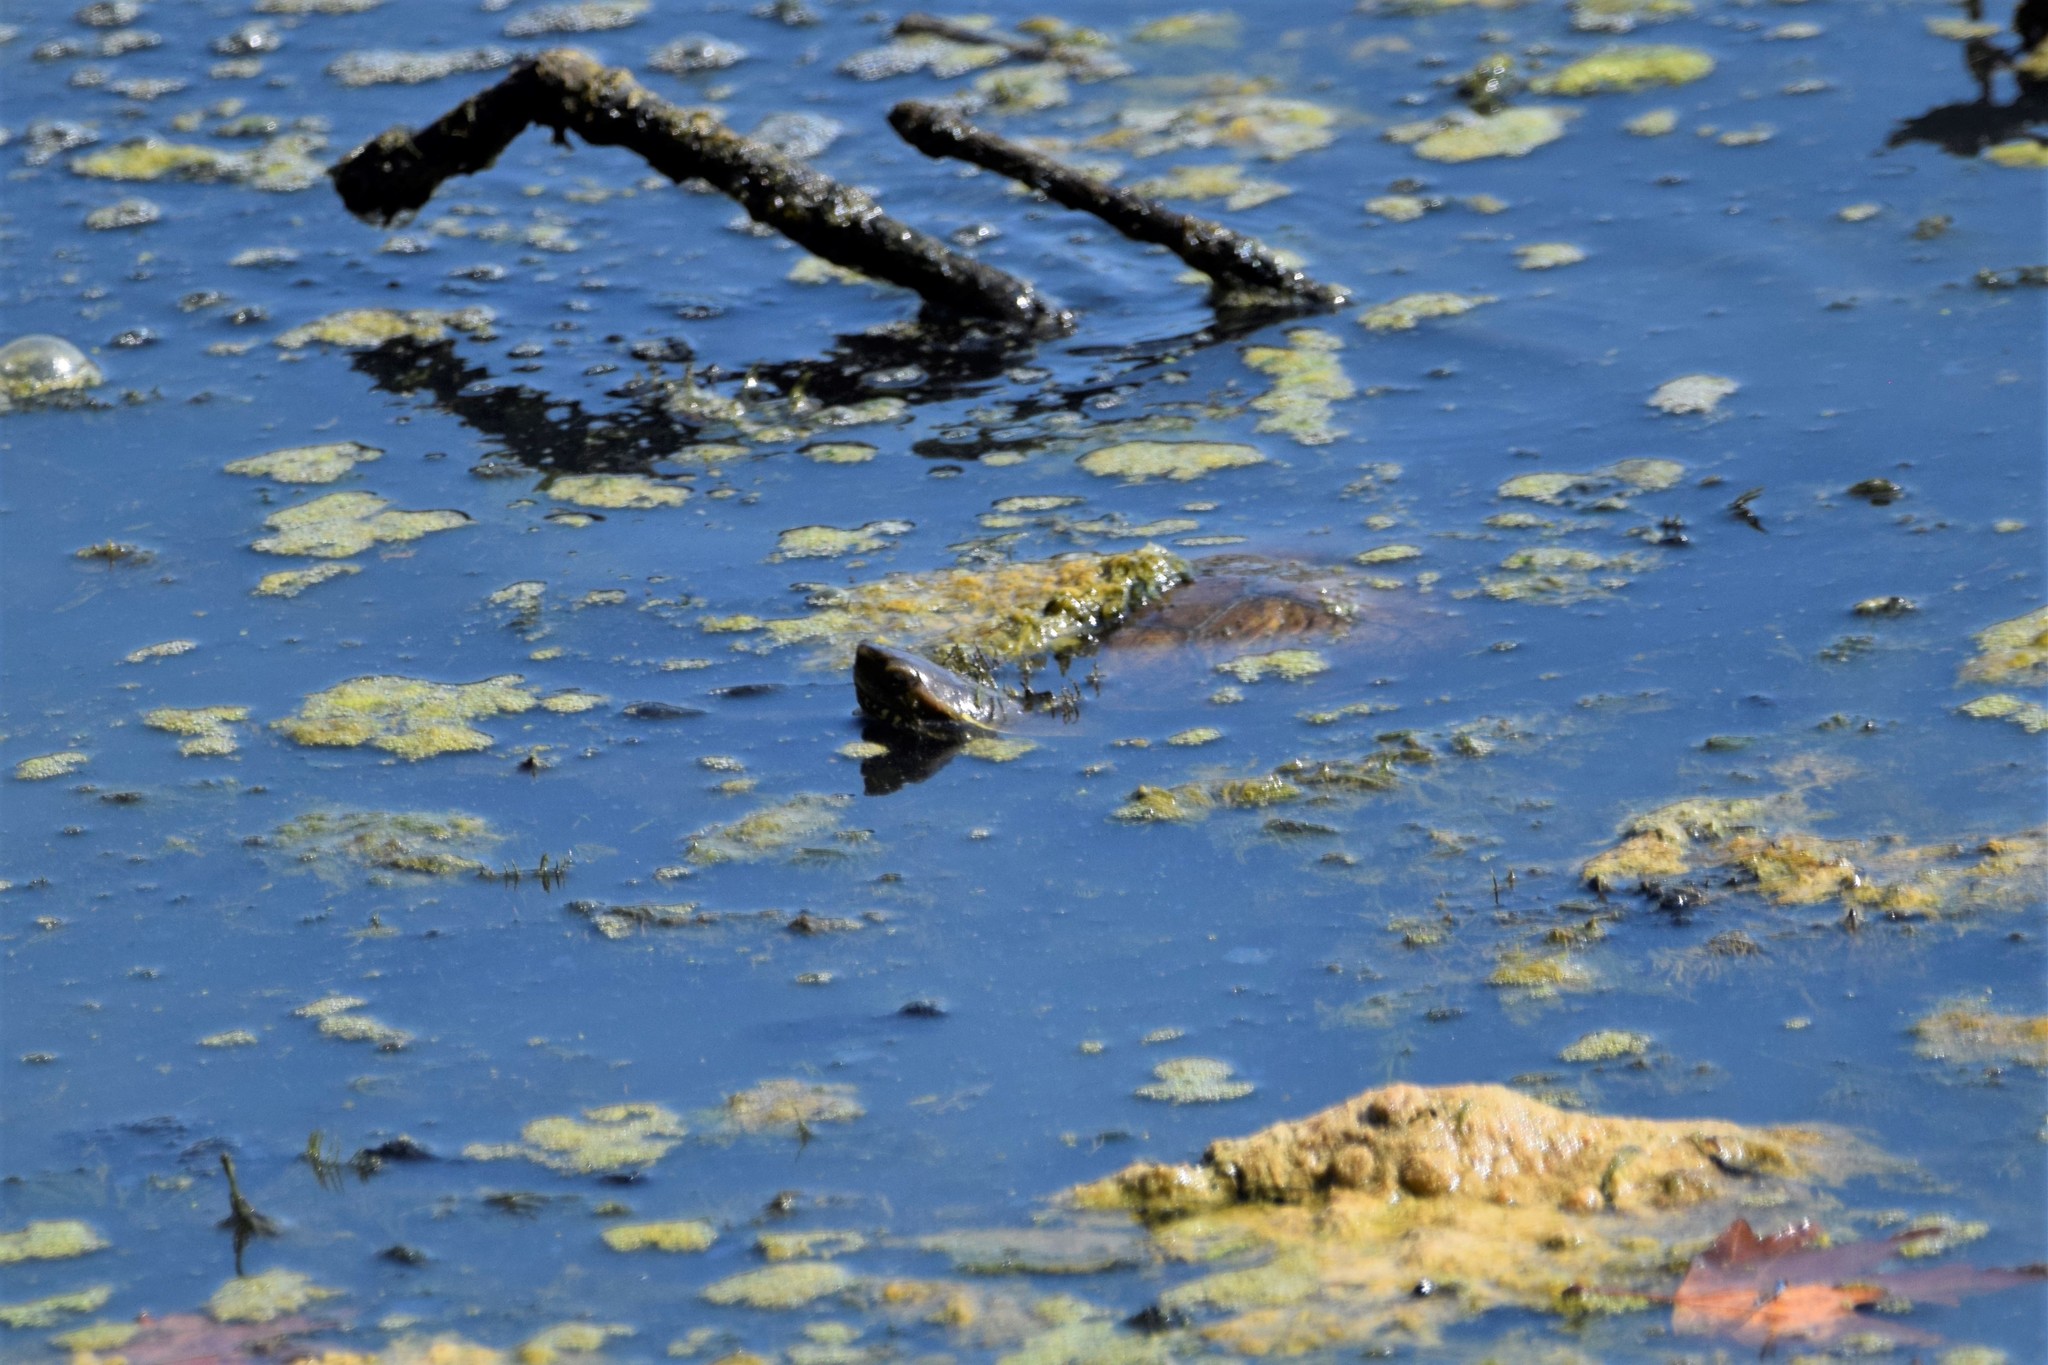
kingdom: Animalia
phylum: Chordata
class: Testudines
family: Geoemydidae
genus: Mauremys
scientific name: Mauremys rivulata
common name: Western caspian turtle
